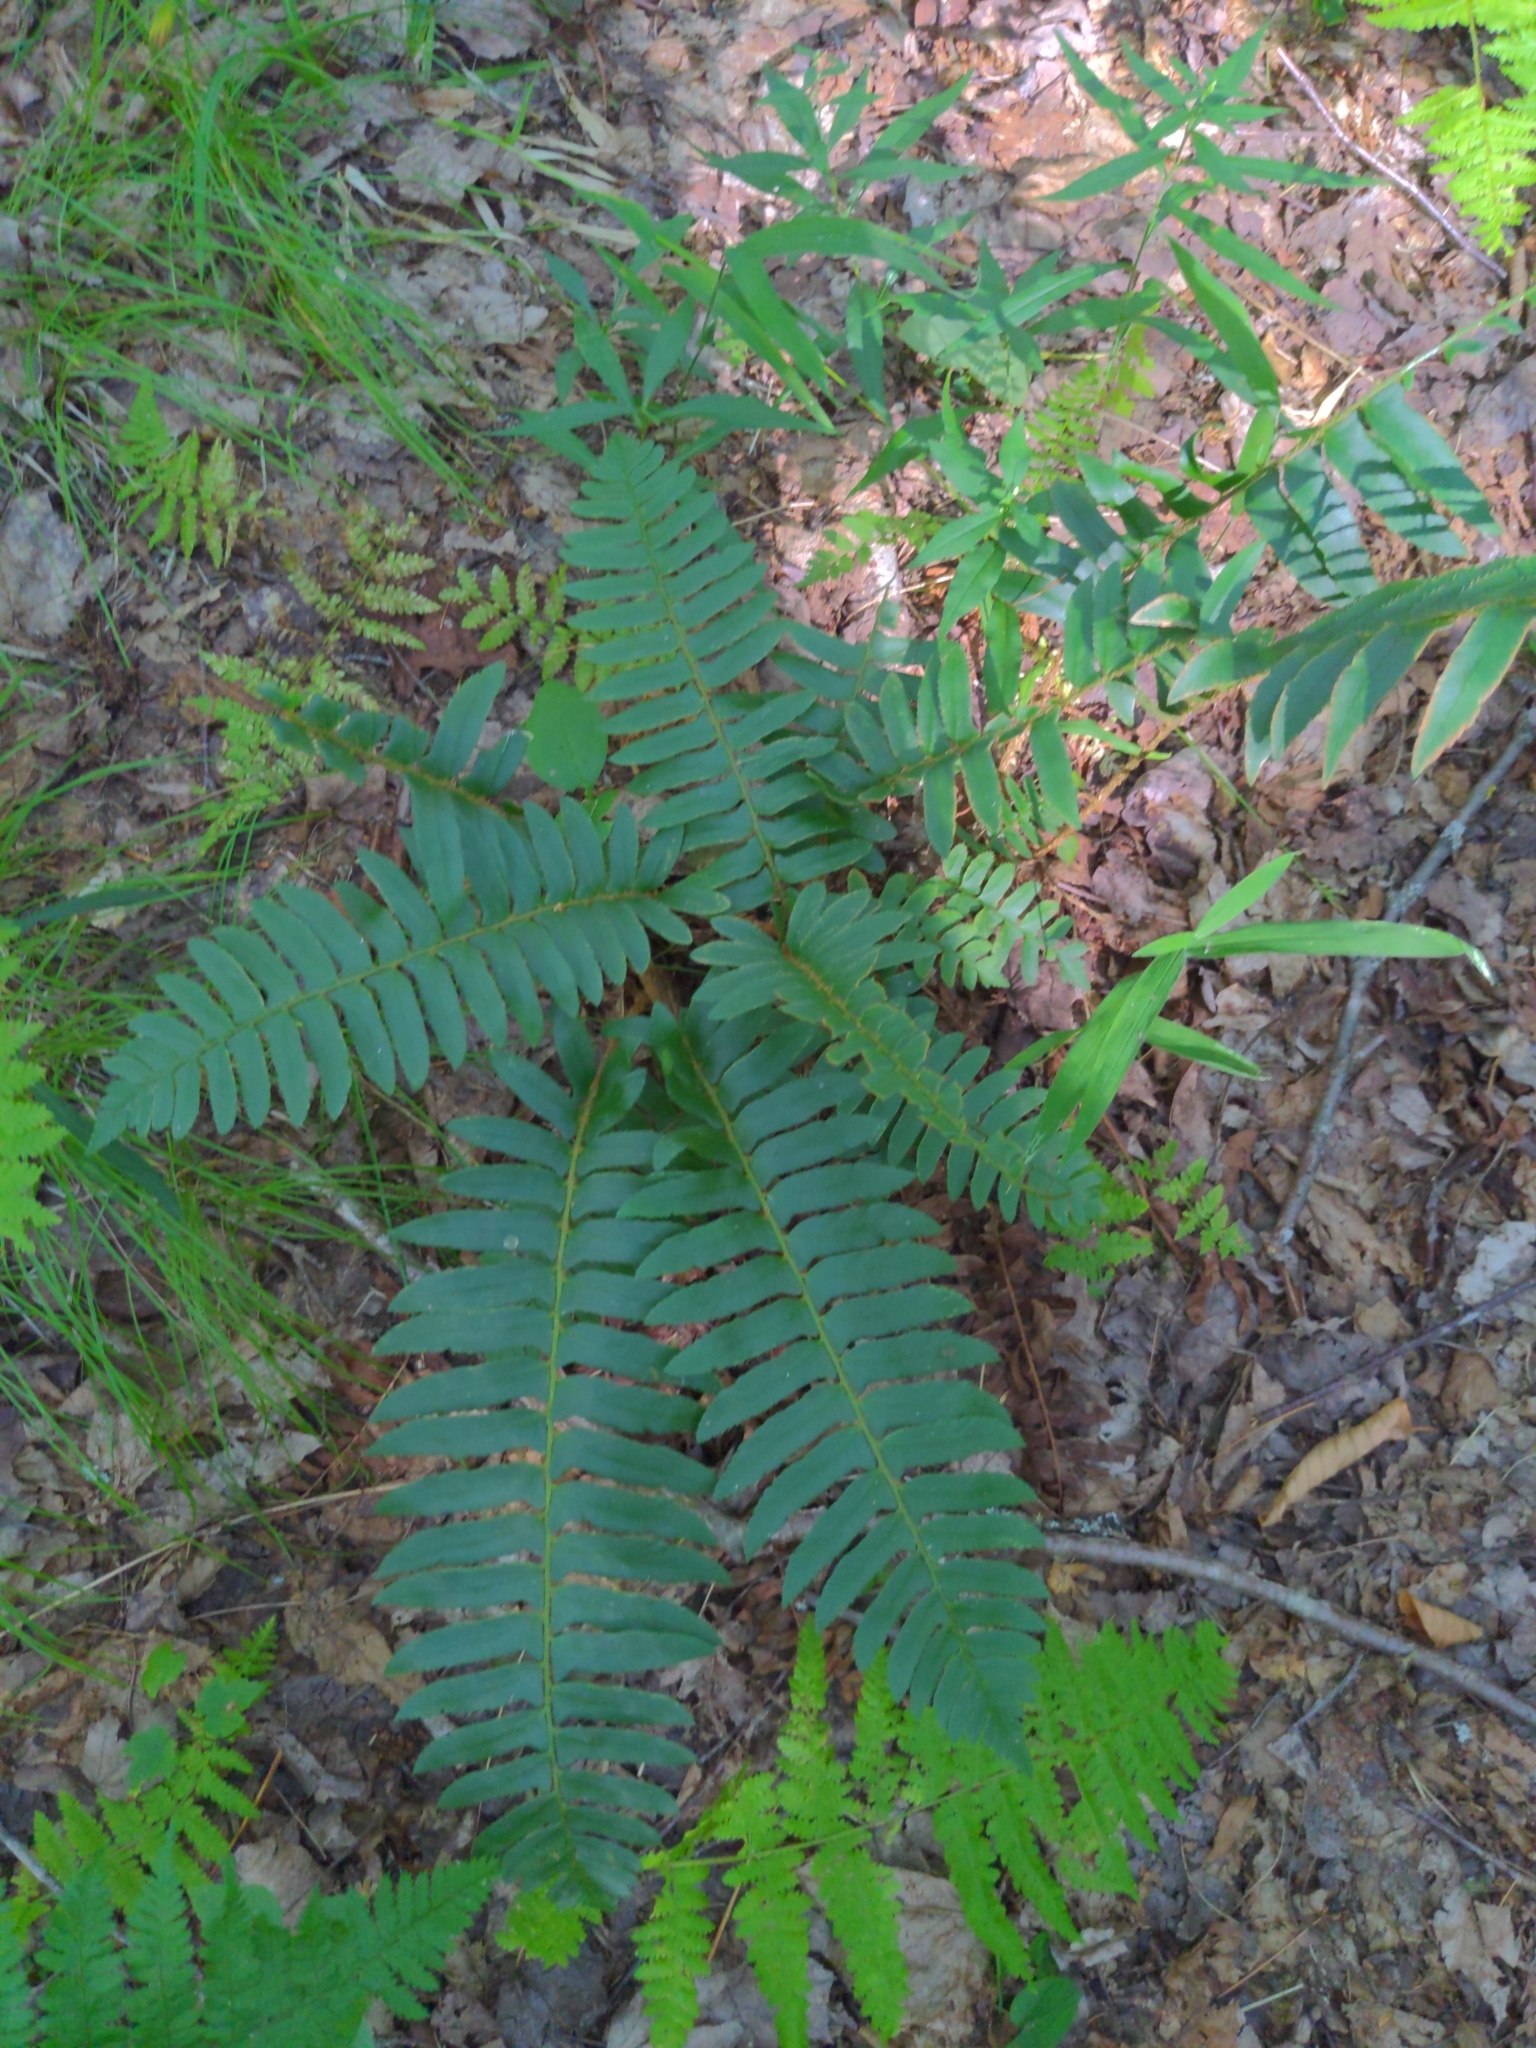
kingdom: Plantae
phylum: Tracheophyta
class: Polypodiopsida
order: Polypodiales
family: Dryopteridaceae
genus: Polystichum
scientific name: Polystichum acrostichoides
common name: Christmas fern
